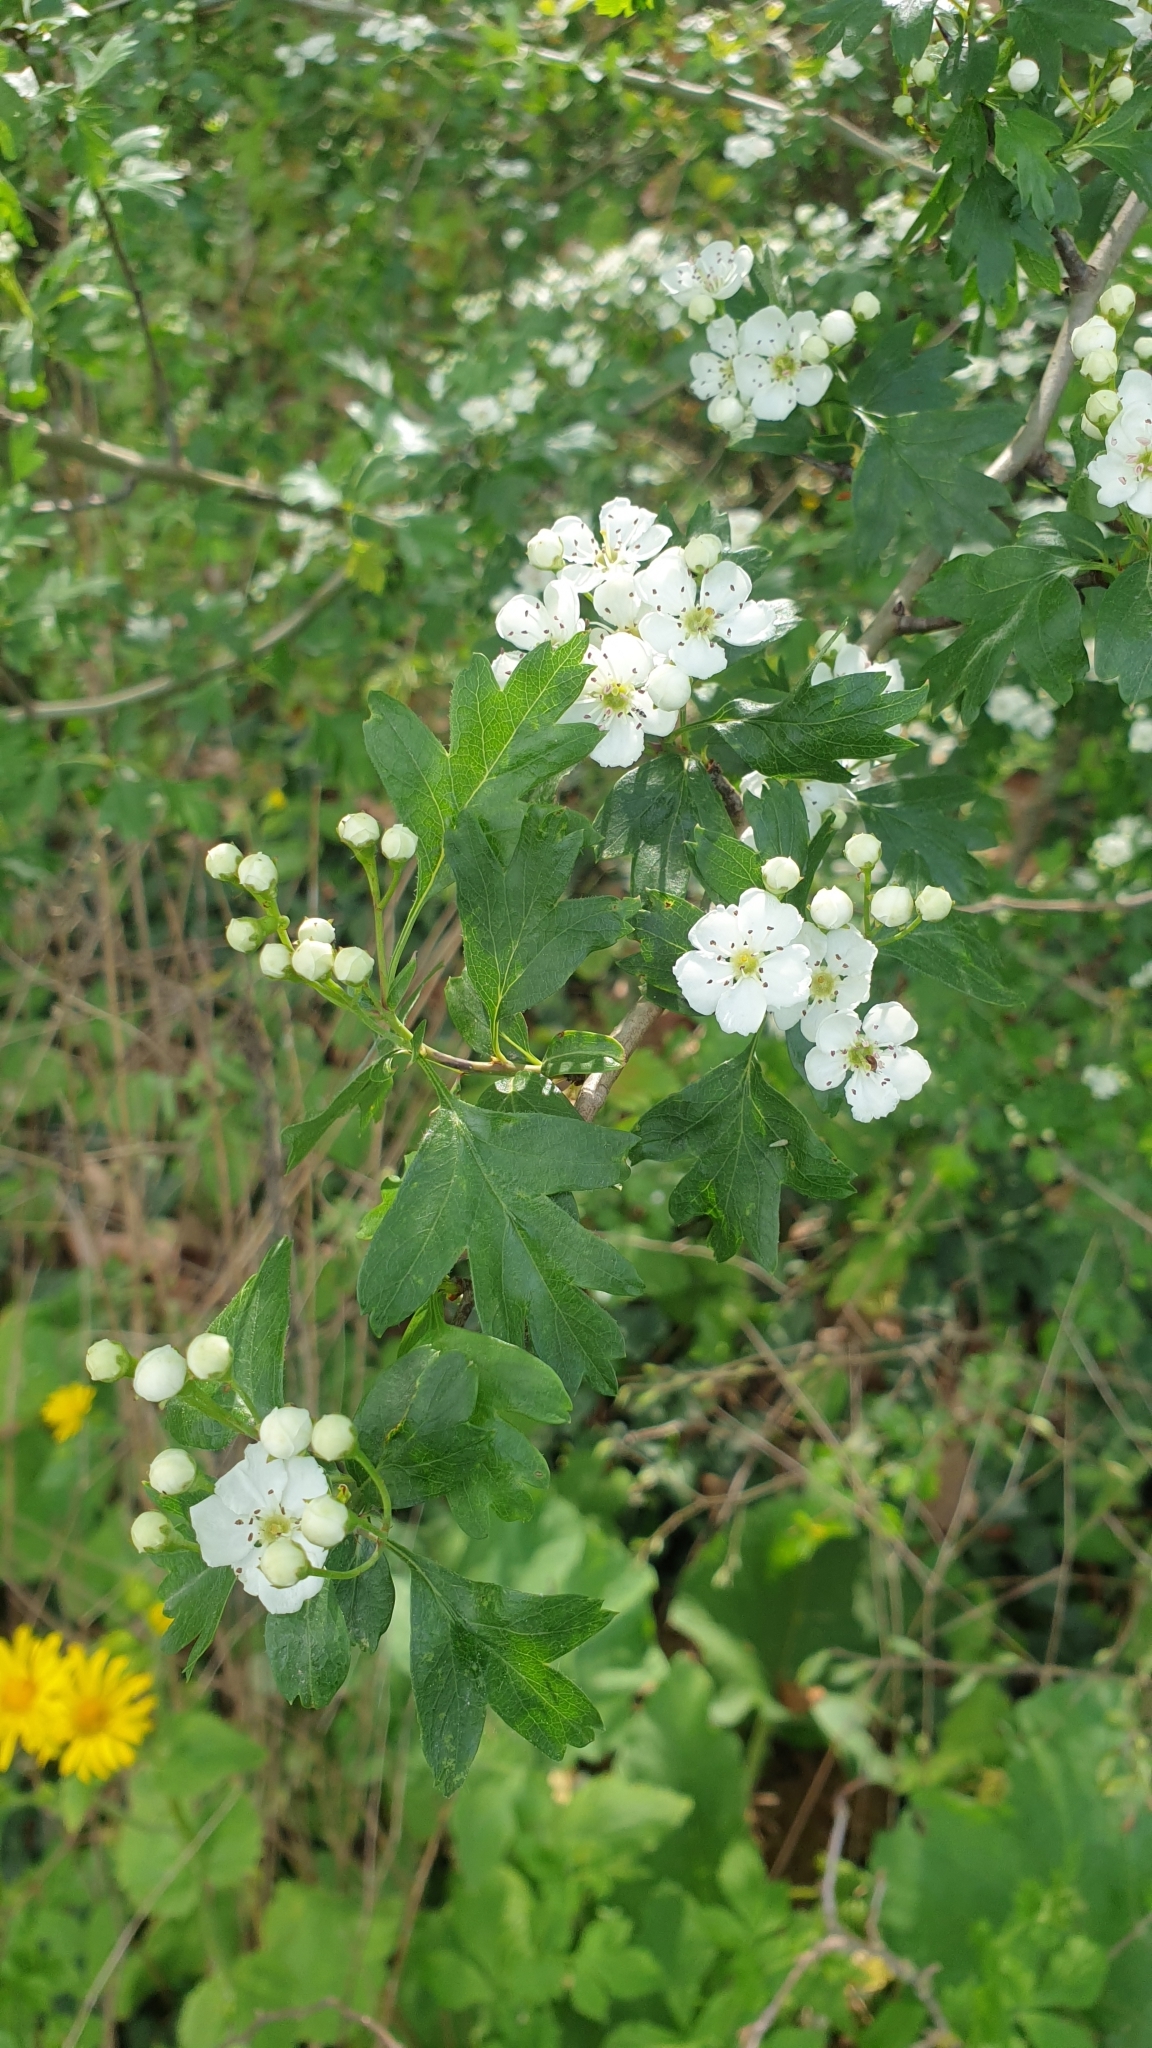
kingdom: Plantae
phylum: Tracheophyta
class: Magnoliopsida
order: Rosales
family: Rosaceae
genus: Crataegus
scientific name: Crataegus monogyna
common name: Hawthorn
